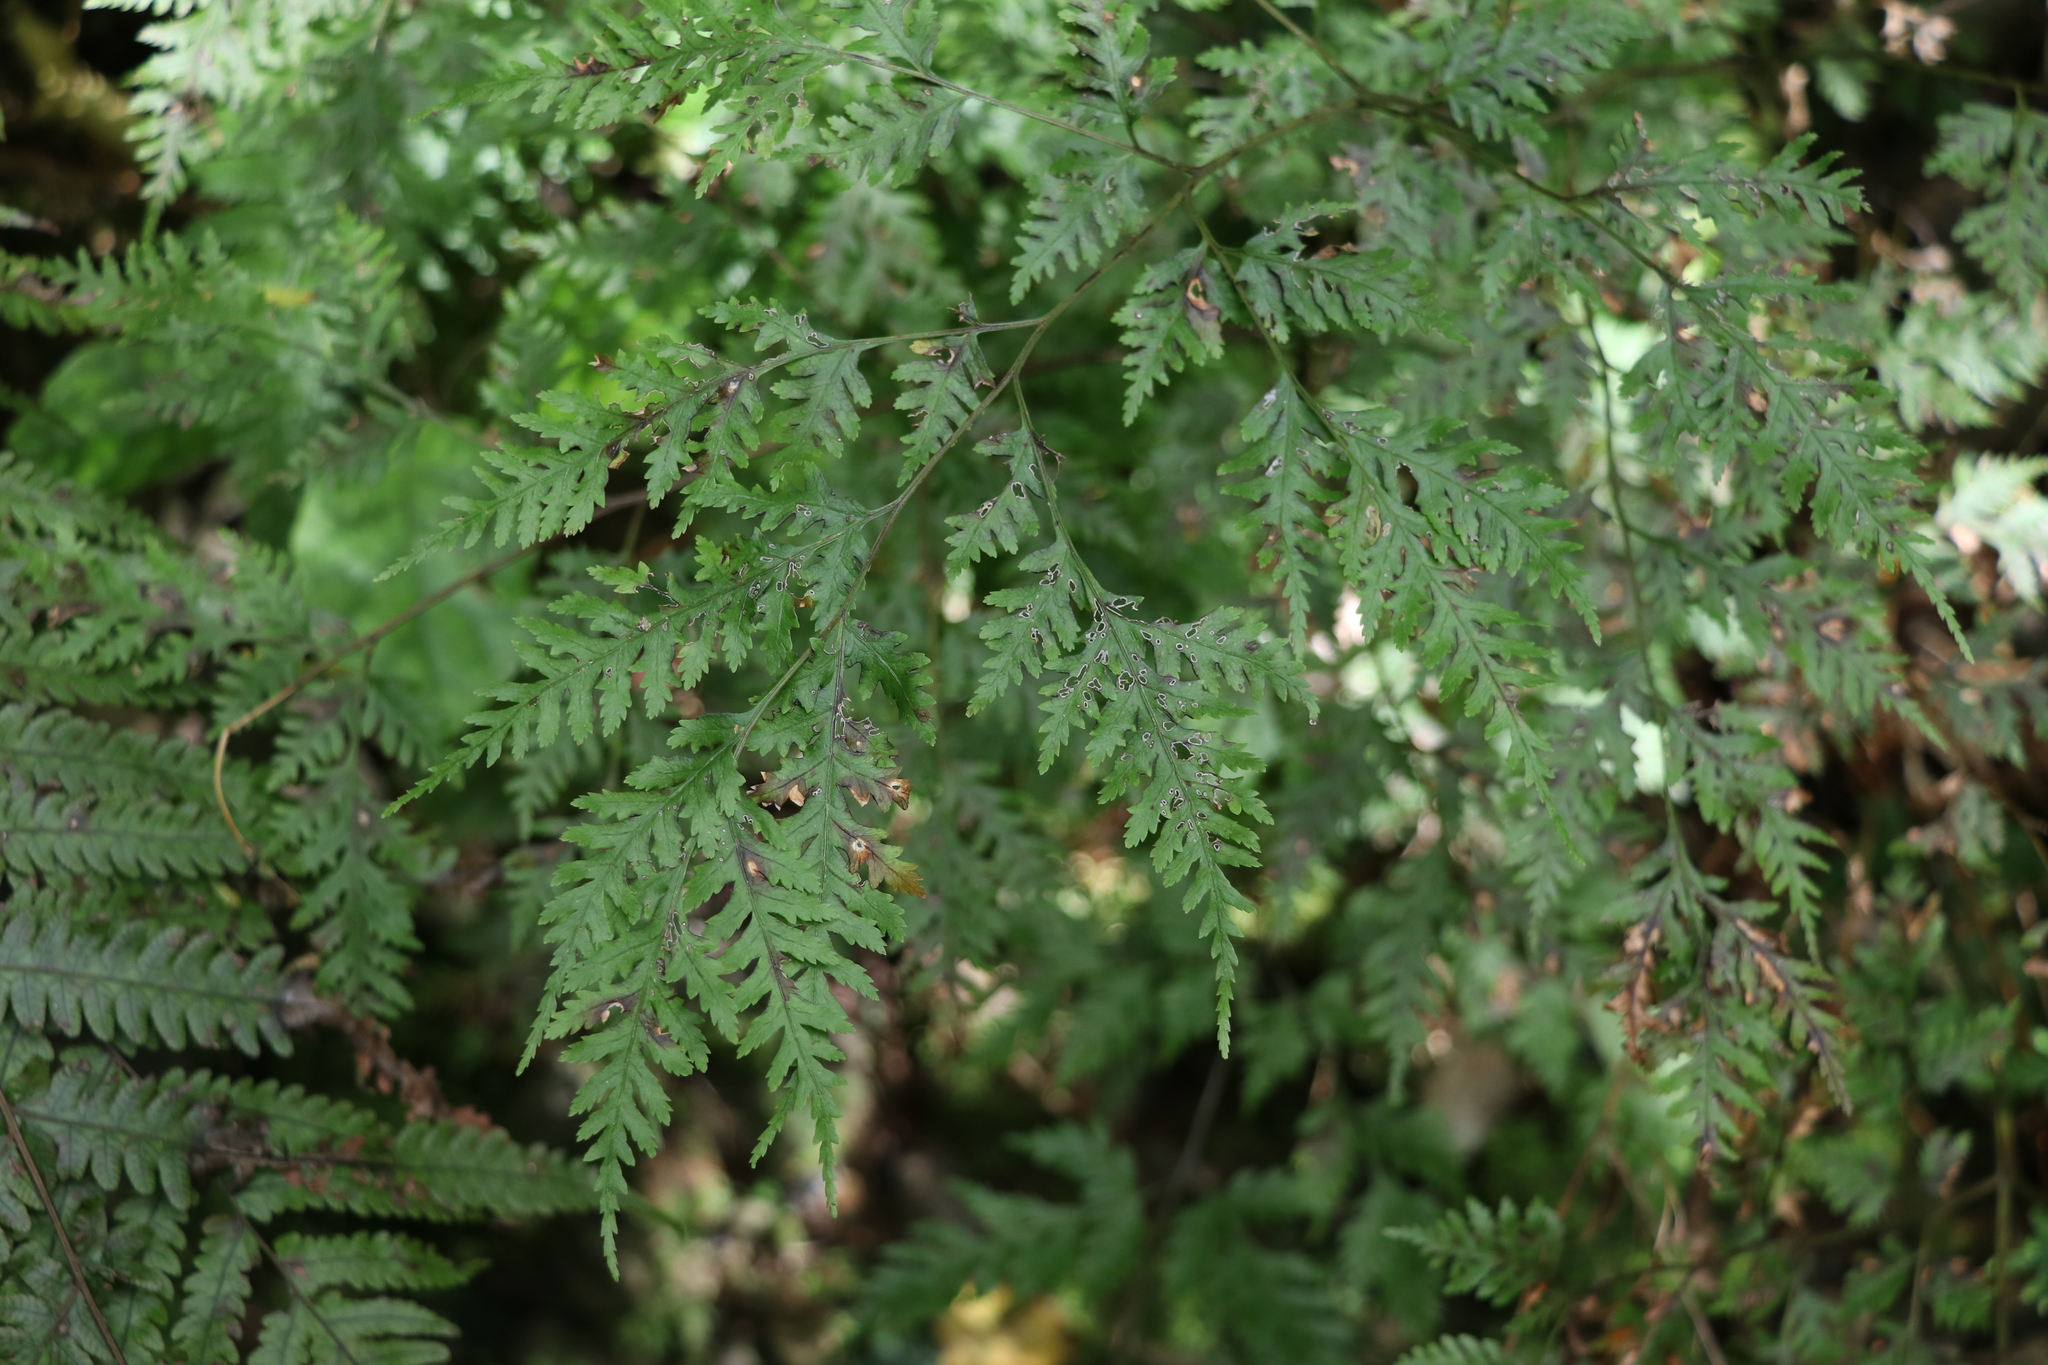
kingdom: Plantae
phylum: Tracheophyta
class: Polypodiopsida
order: Polypodiales
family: Pteridaceae
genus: Pteris
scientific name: Pteris macilenta
